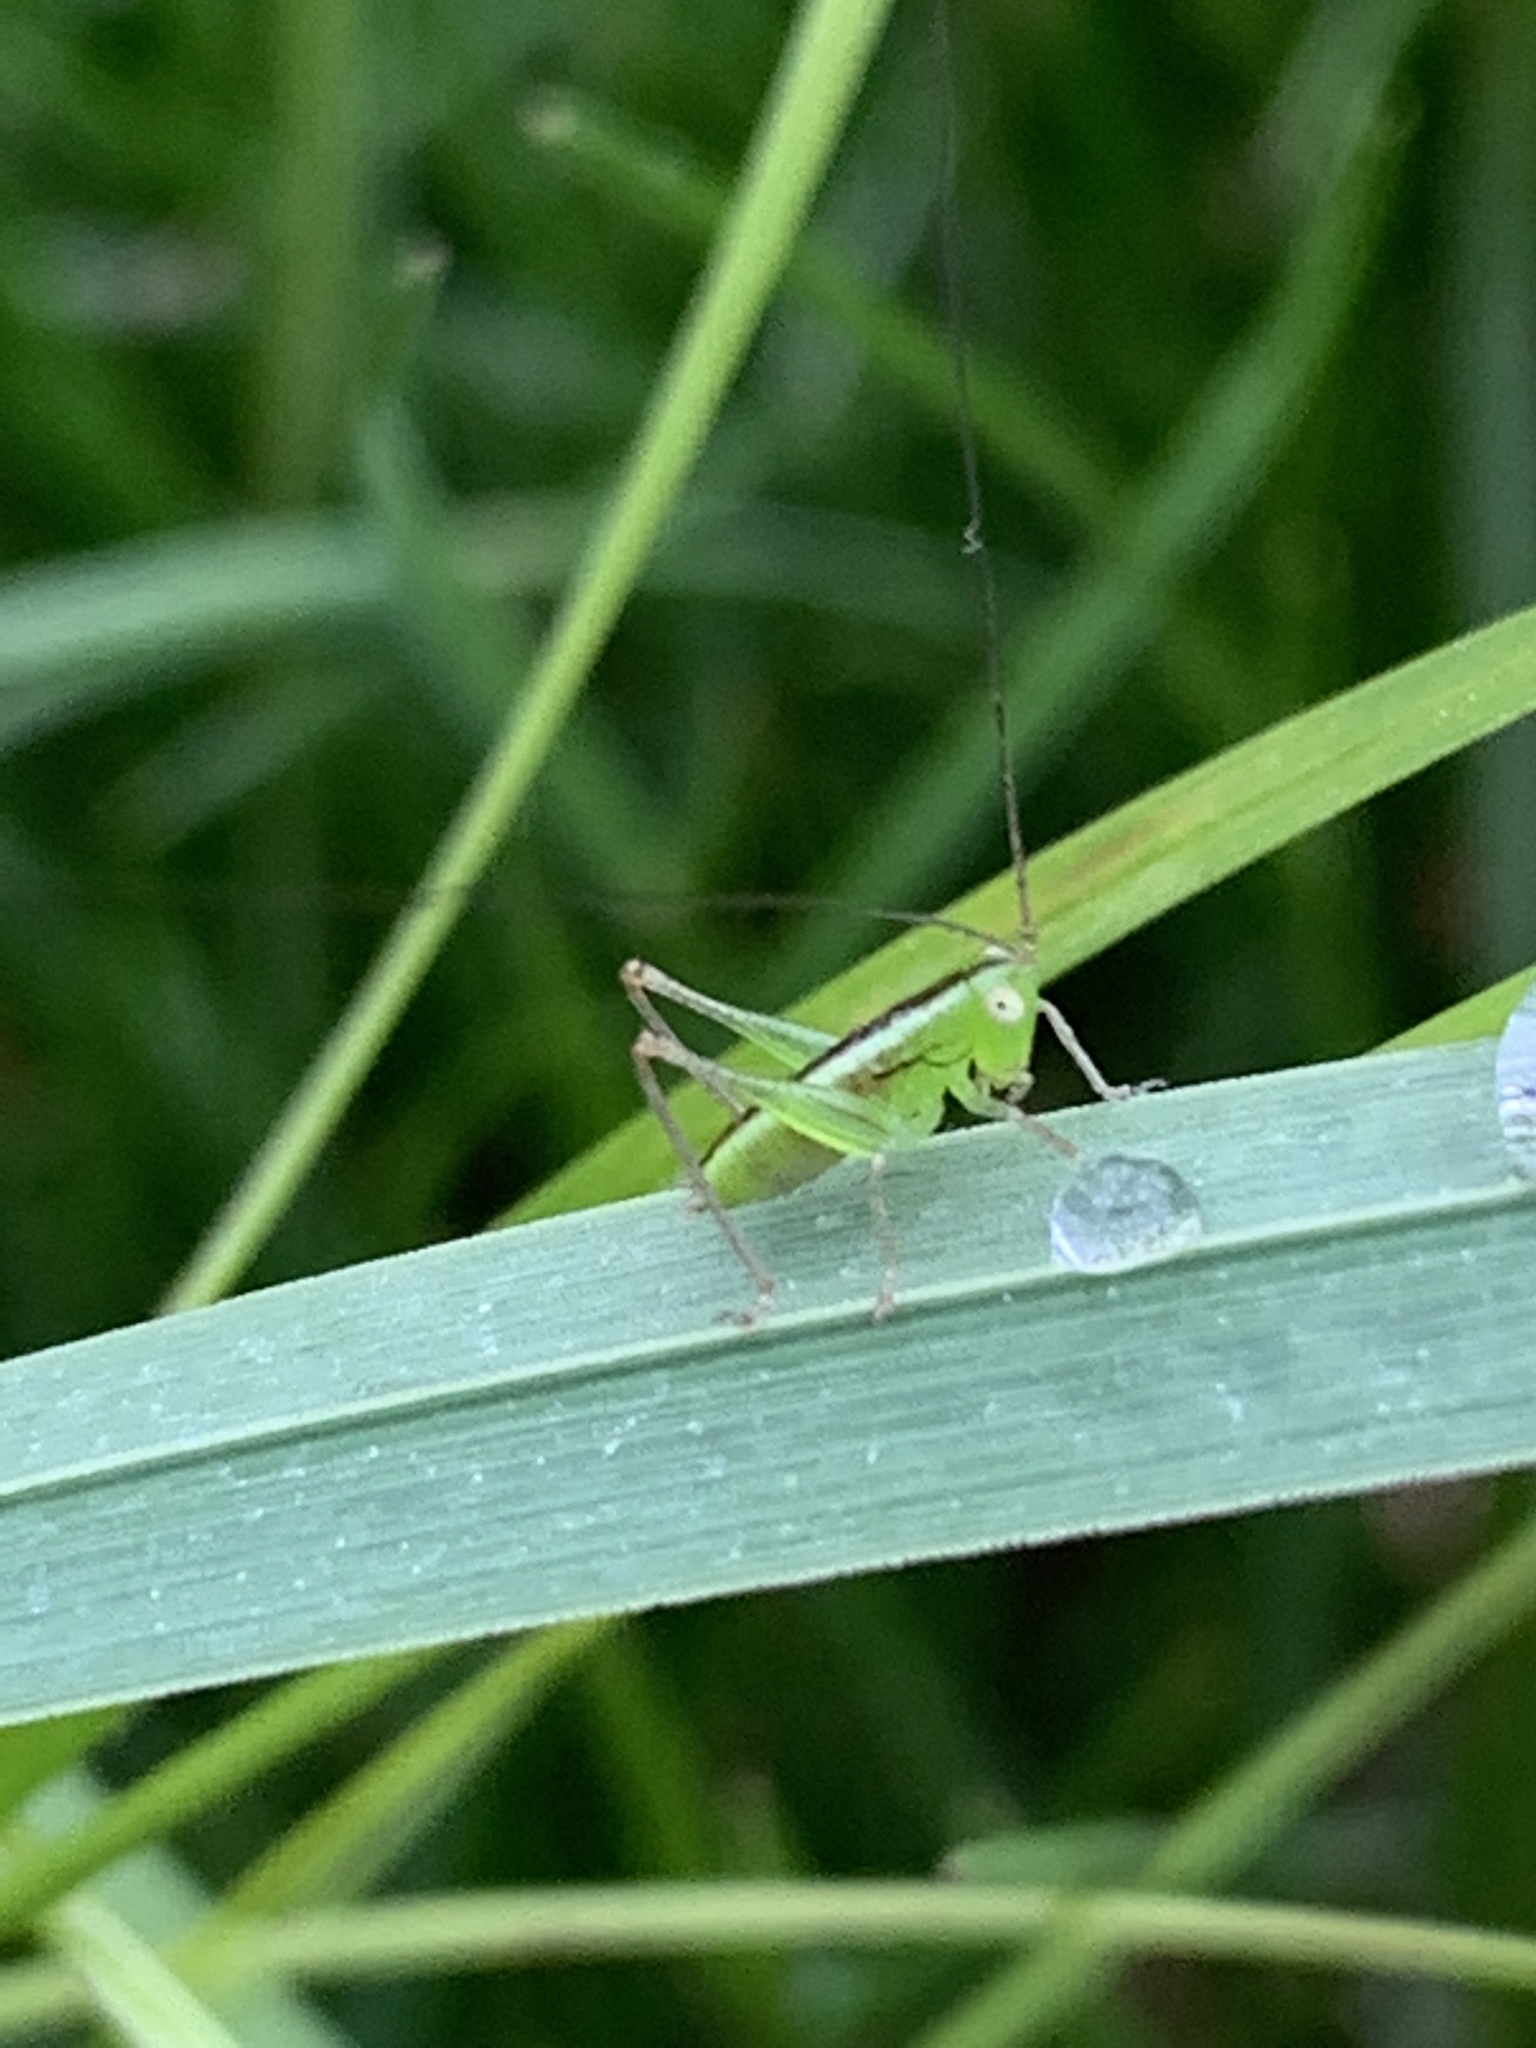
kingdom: Animalia
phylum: Arthropoda
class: Insecta
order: Orthoptera
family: Tettigoniidae
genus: Conocephalus
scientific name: Conocephalus brevipennis
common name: Short-winged meadow katydid
